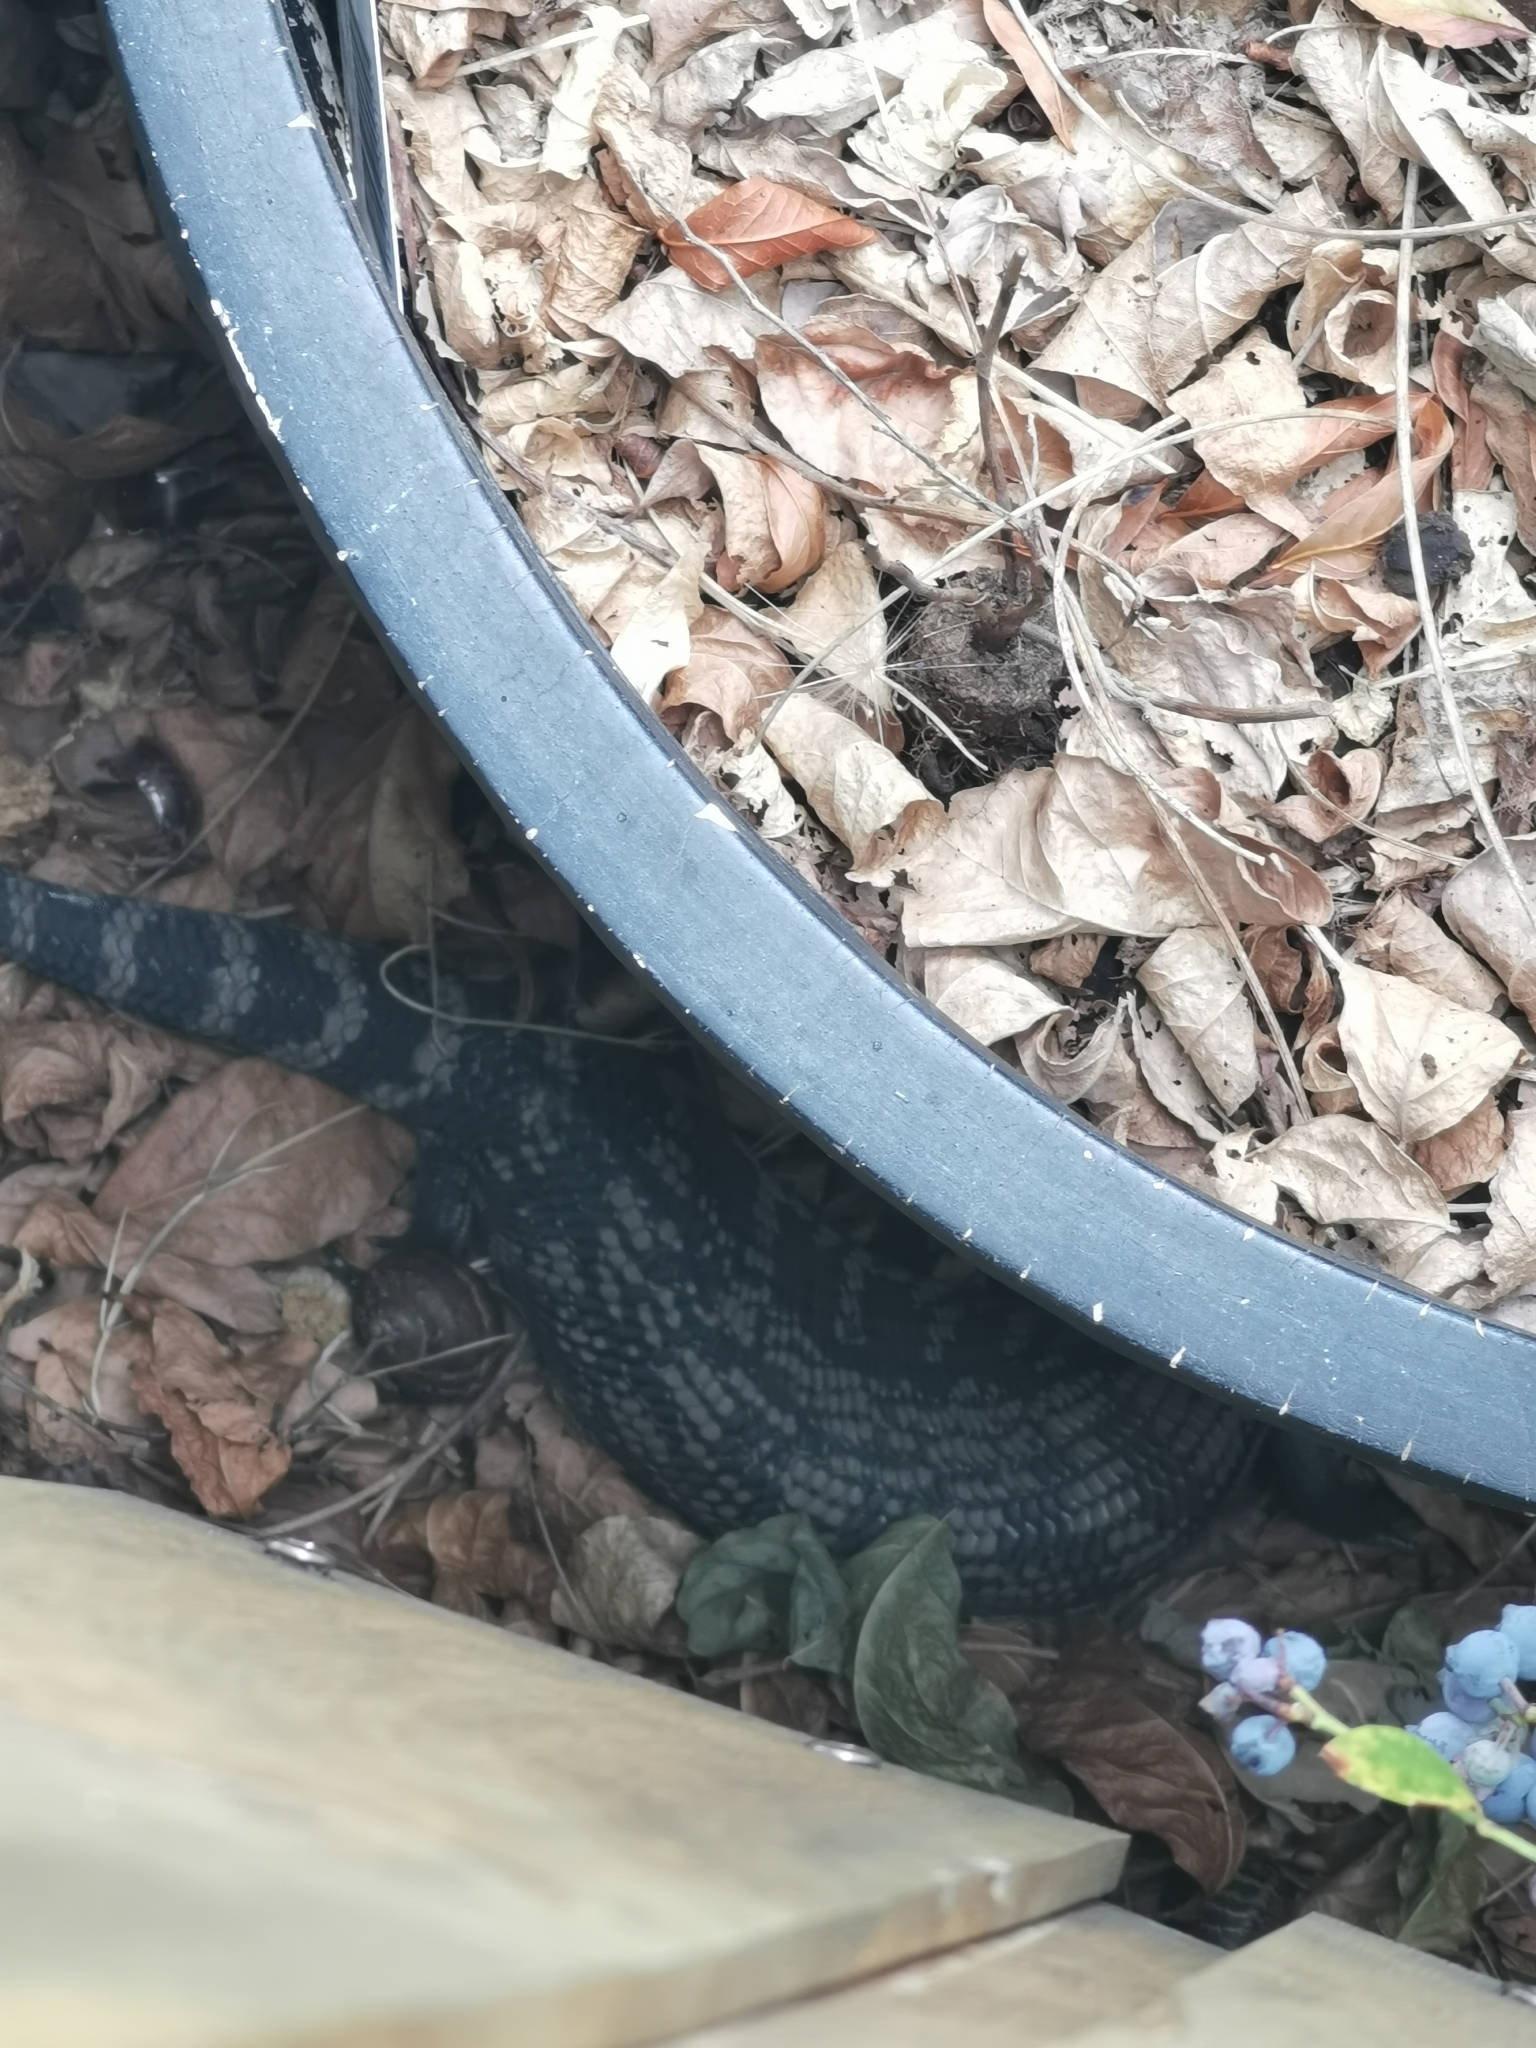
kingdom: Animalia
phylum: Chordata
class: Squamata
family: Scincidae
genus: Tiliqua
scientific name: Tiliqua scincoides
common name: Common bluetongue
